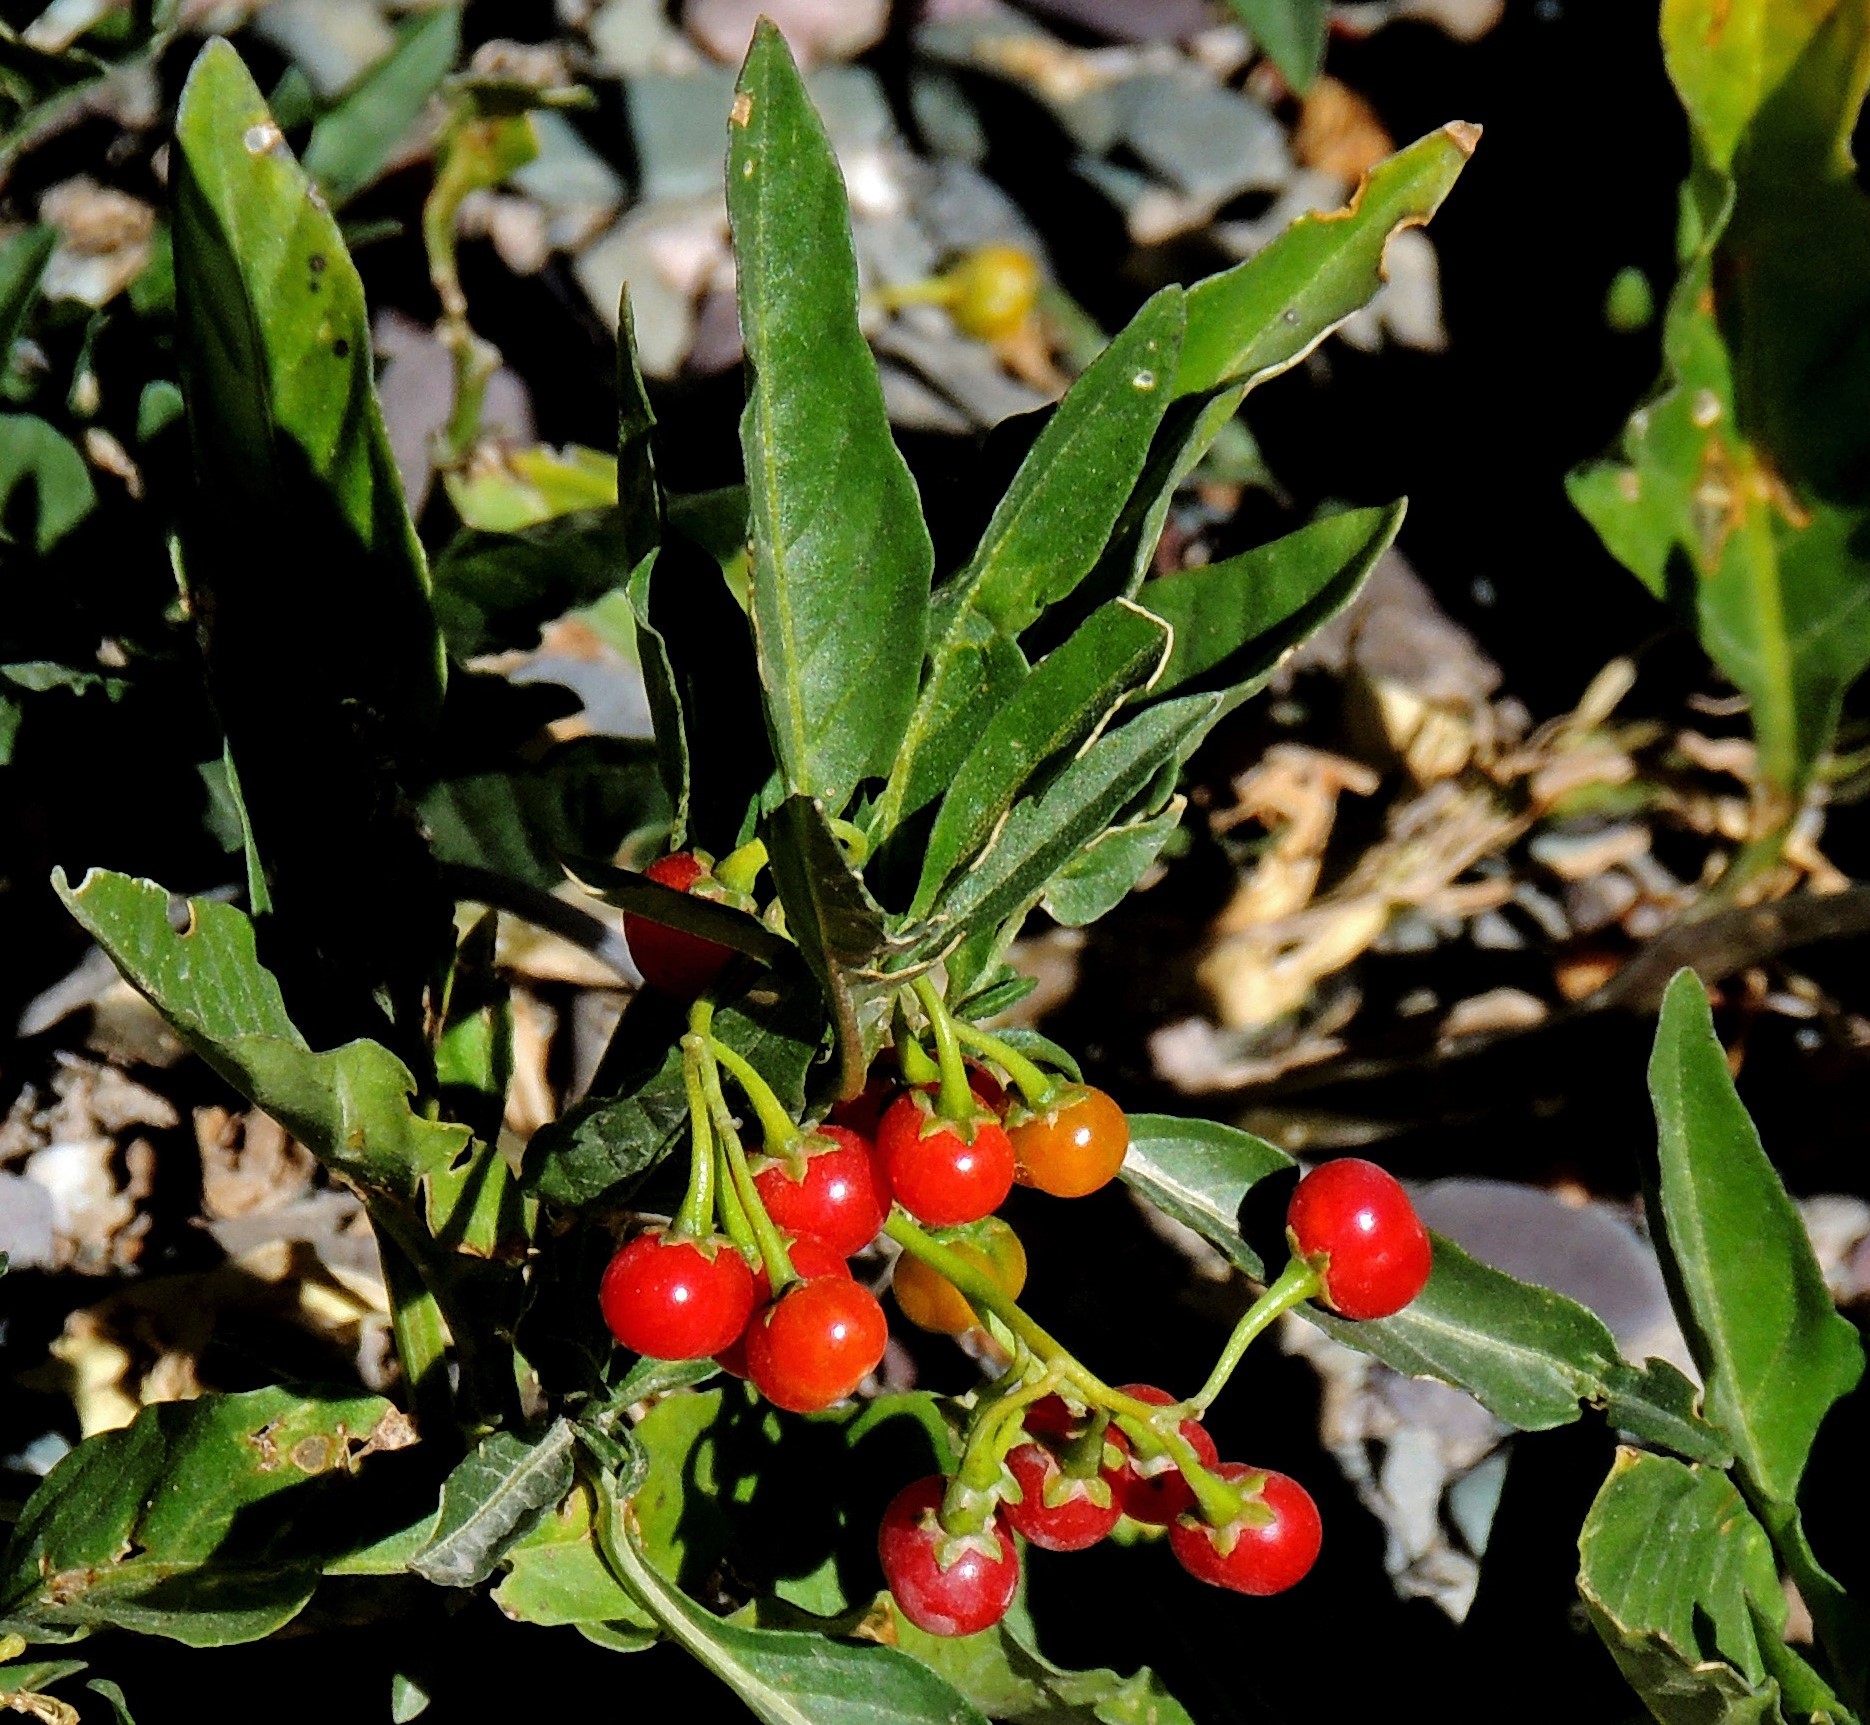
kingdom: Plantae
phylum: Tracheophyta
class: Magnoliopsida
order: Solanales
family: Solanaceae
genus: Solanum
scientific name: Solanum tripartitum
